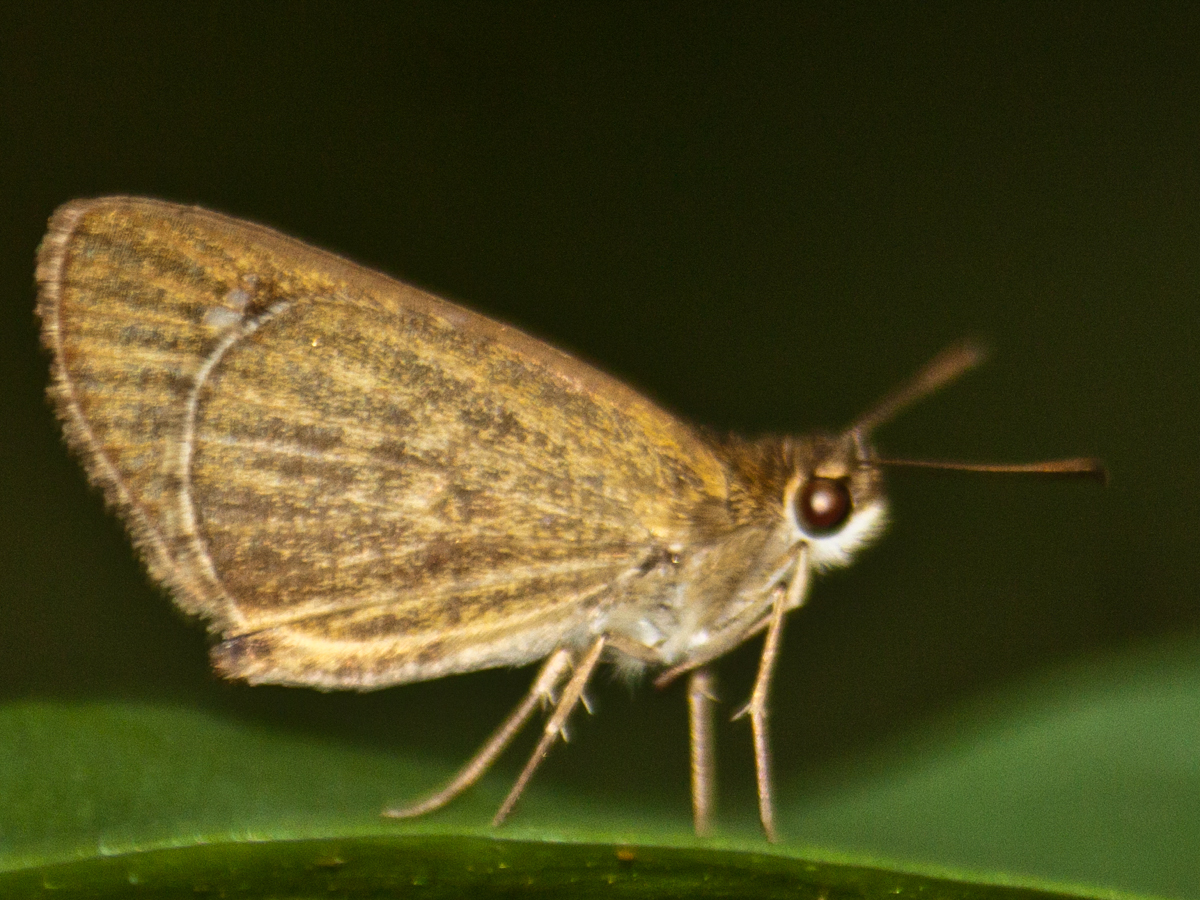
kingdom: Animalia
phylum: Arthropoda
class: Insecta
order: Lepidoptera
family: Hesperiidae
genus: Suada
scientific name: Suada swerga
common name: Grass bob
